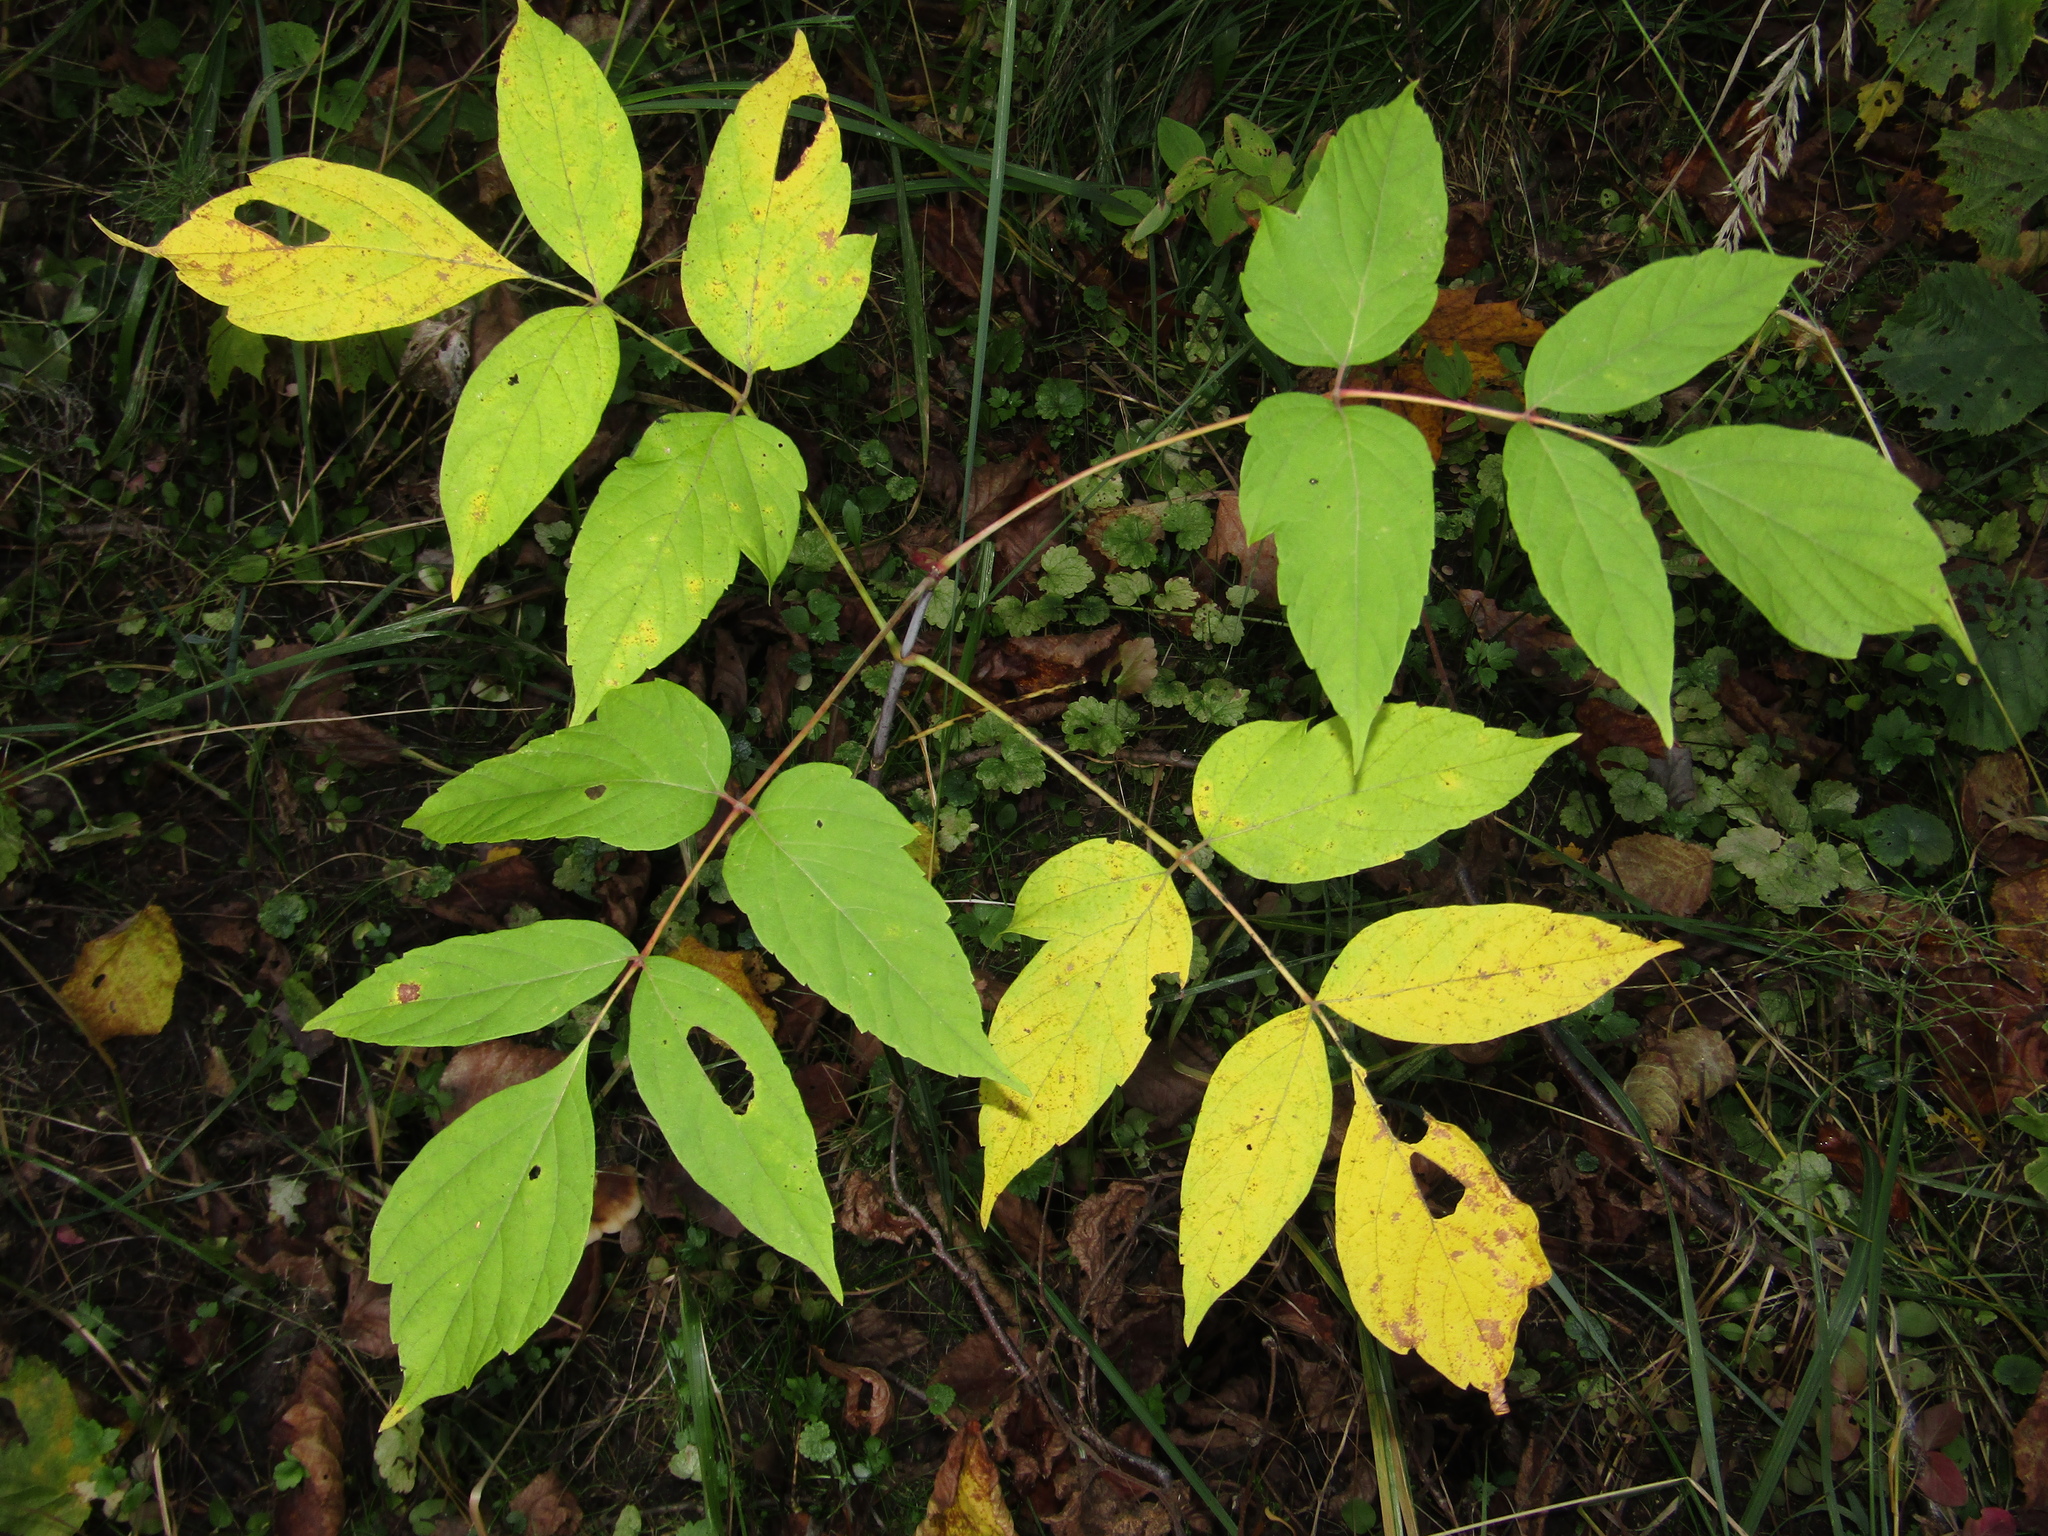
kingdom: Plantae
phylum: Tracheophyta
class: Magnoliopsida
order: Sapindales
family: Sapindaceae
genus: Acer
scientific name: Acer negundo
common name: Ashleaf maple
